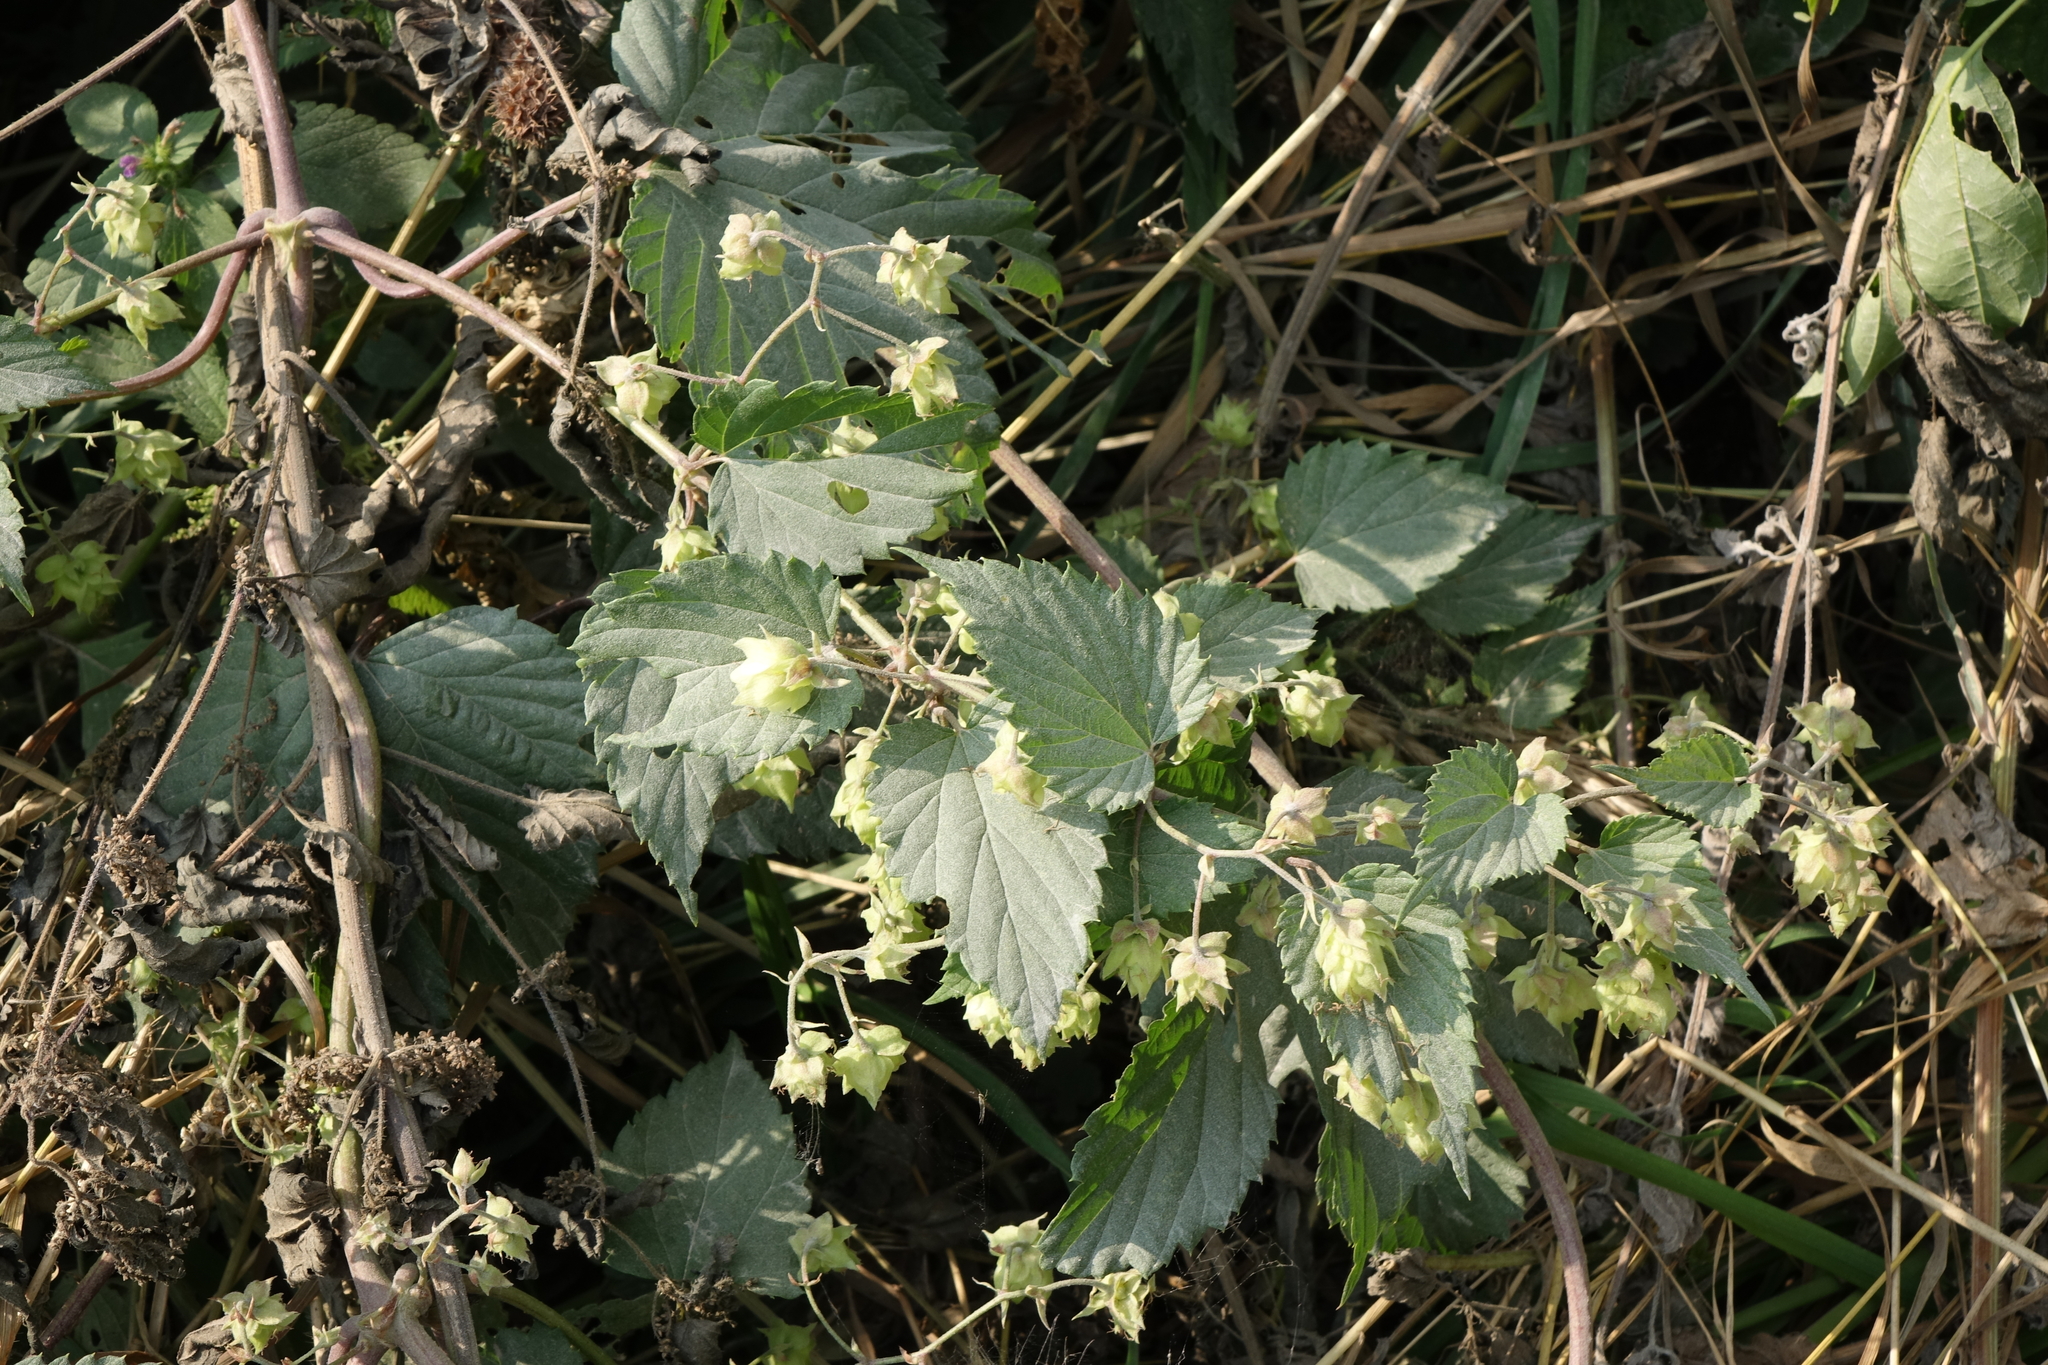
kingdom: Plantae
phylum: Tracheophyta
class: Magnoliopsida
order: Rosales
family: Cannabaceae
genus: Humulus
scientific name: Humulus lupulus
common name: Hop
